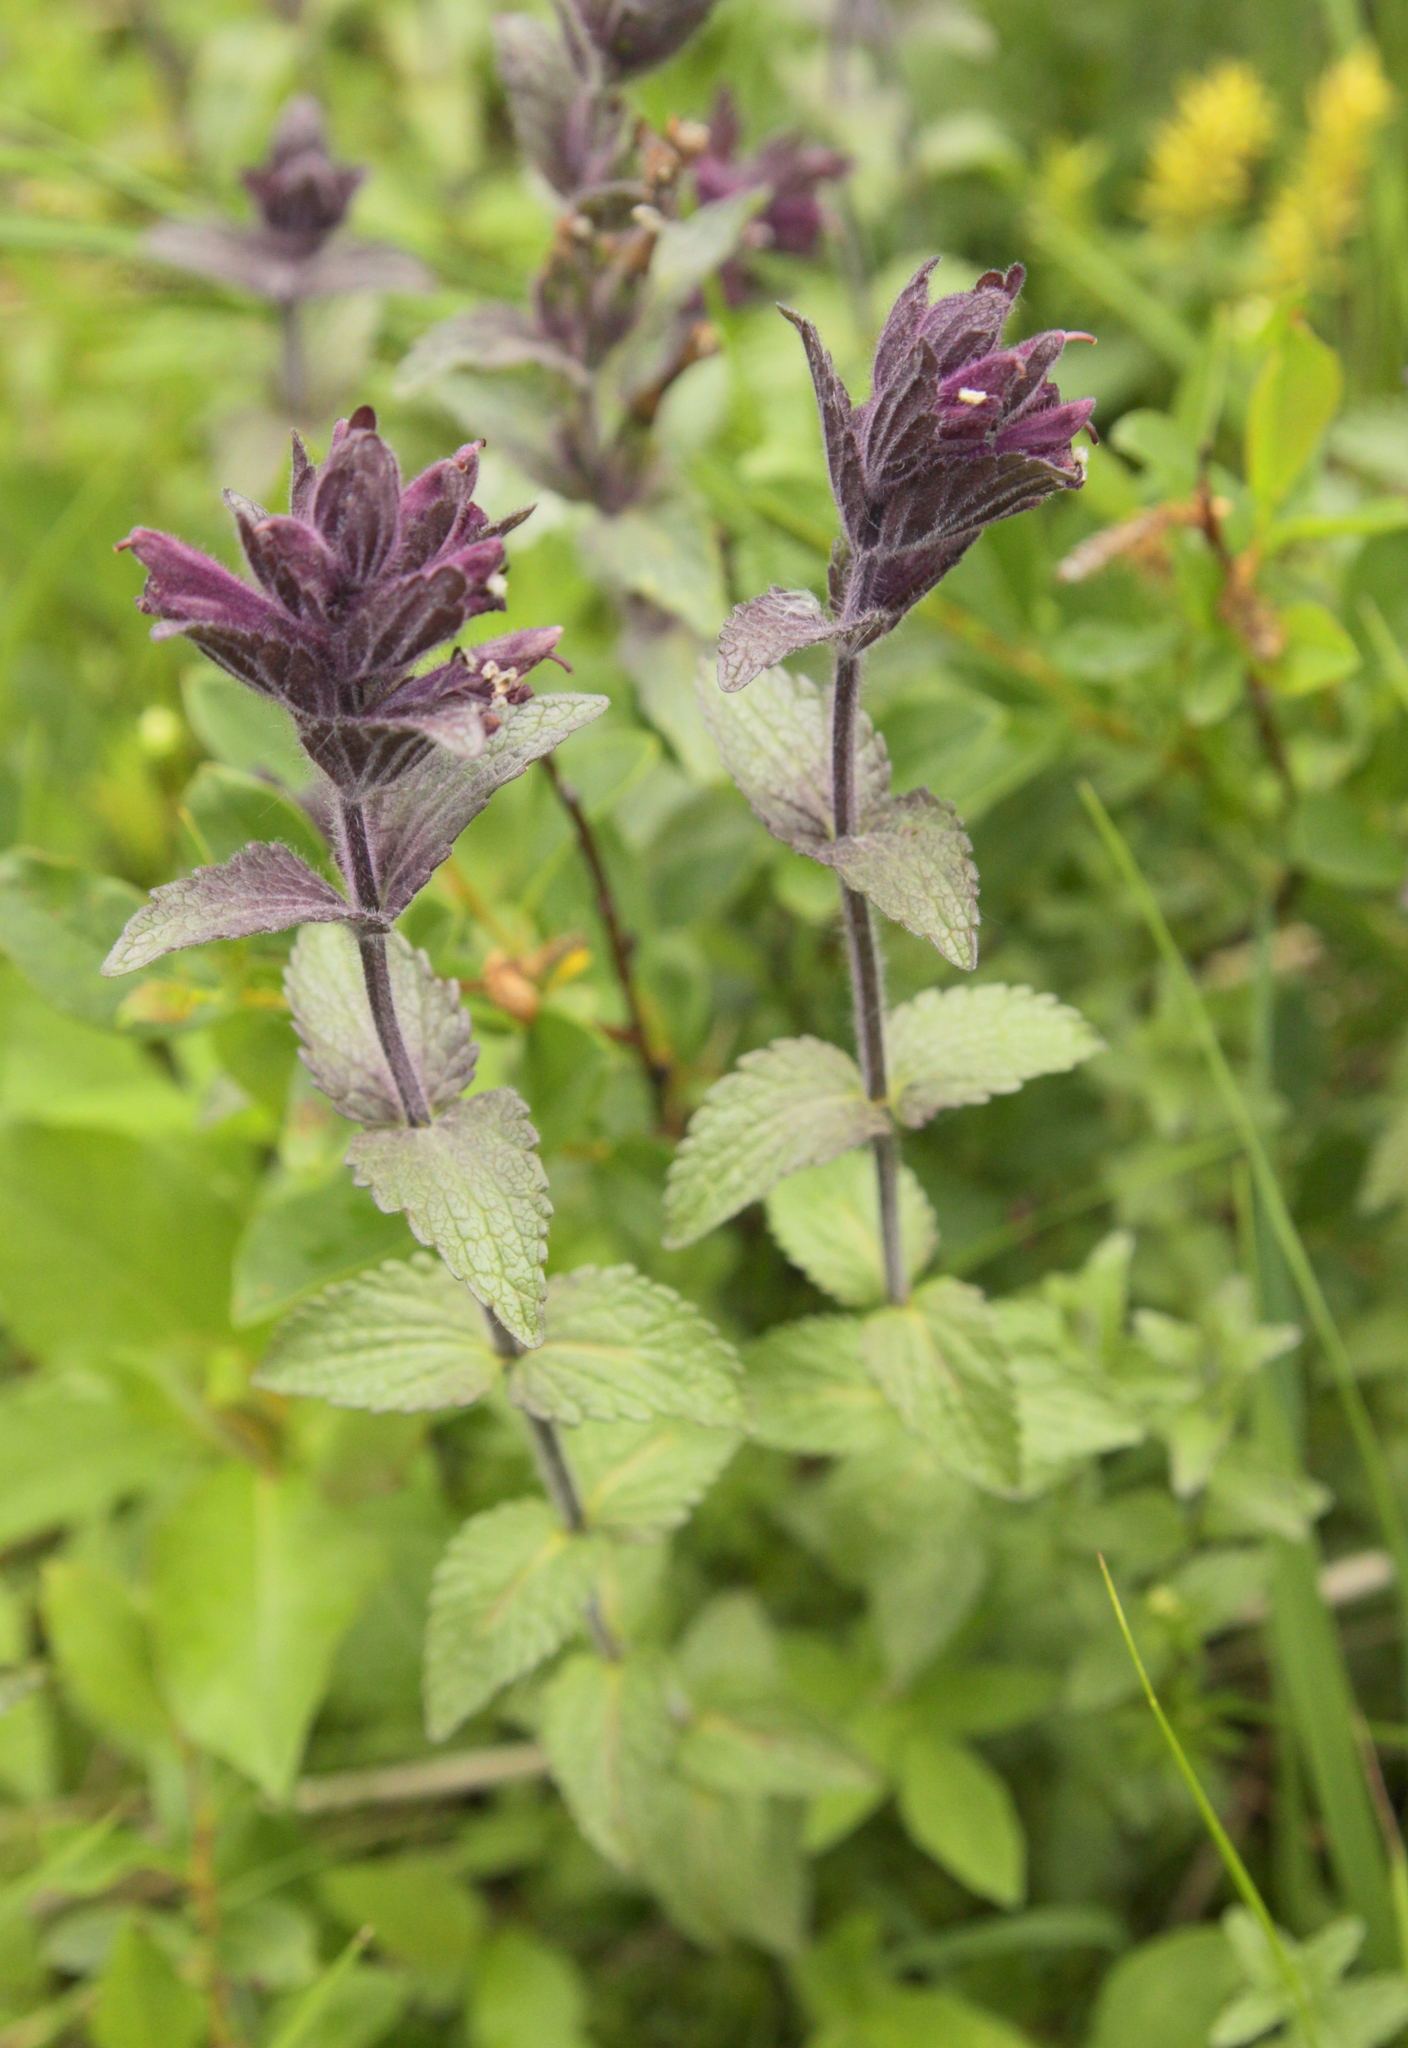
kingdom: Plantae
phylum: Tracheophyta
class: Magnoliopsida
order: Lamiales
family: Orobanchaceae
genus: Bartsia
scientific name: Bartsia alpina
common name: Alpine bartsia
